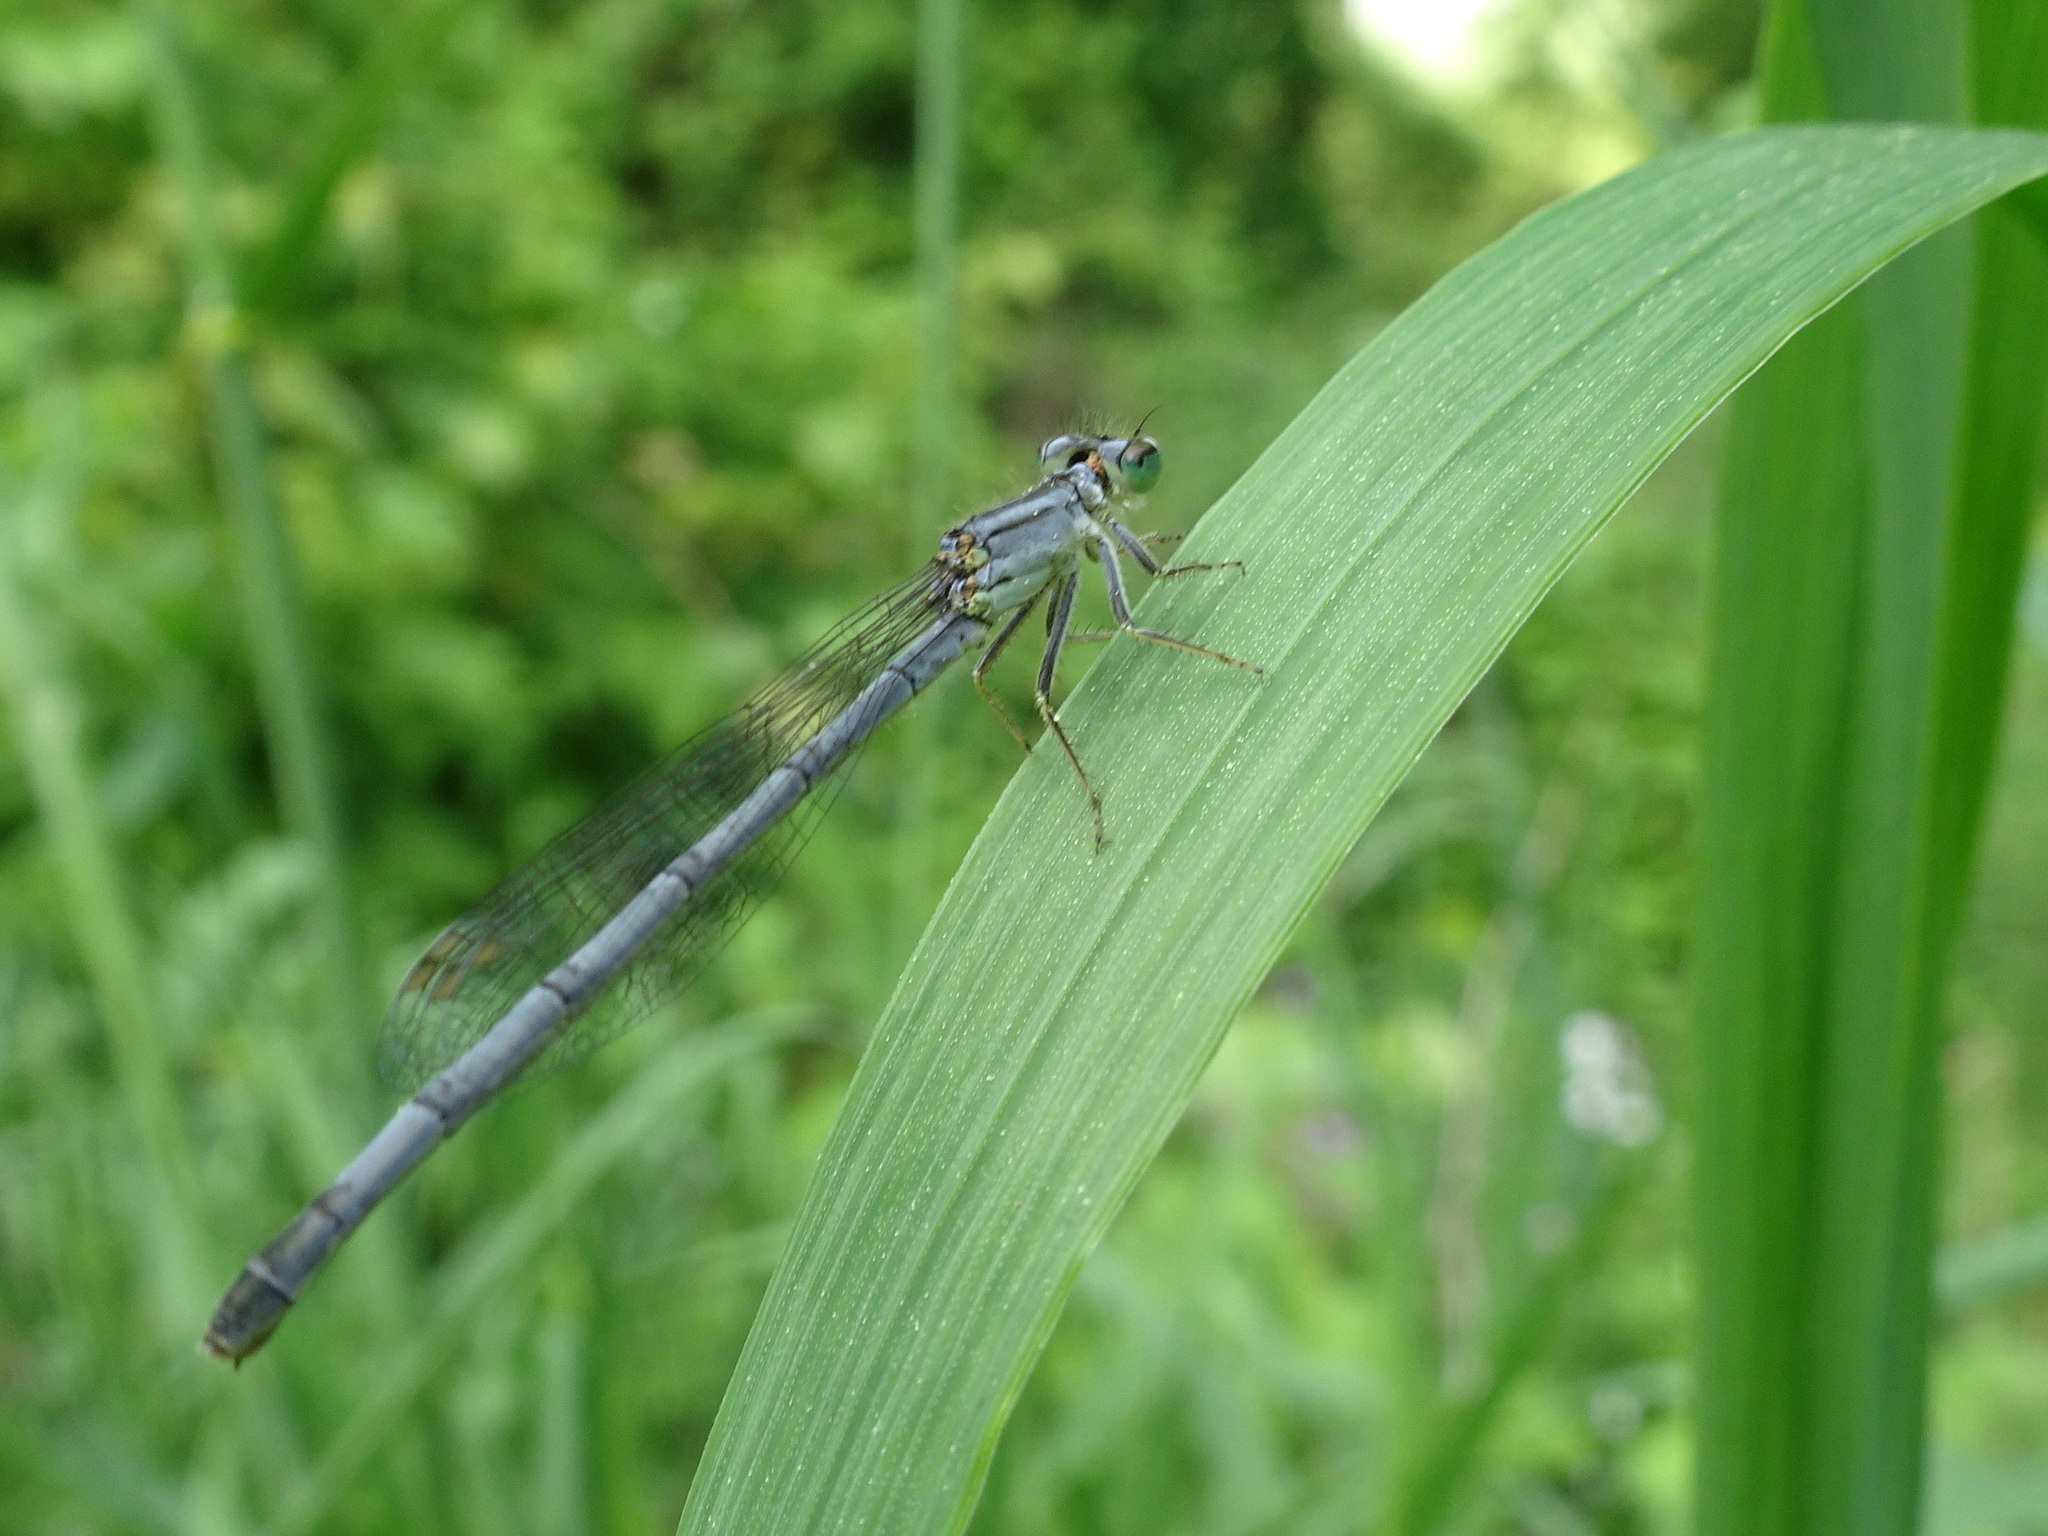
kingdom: Animalia
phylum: Arthropoda
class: Insecta
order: Odonata
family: Coenagrionidae
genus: Ischnura
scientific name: Ischnura verticalis
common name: Eastern forktail
